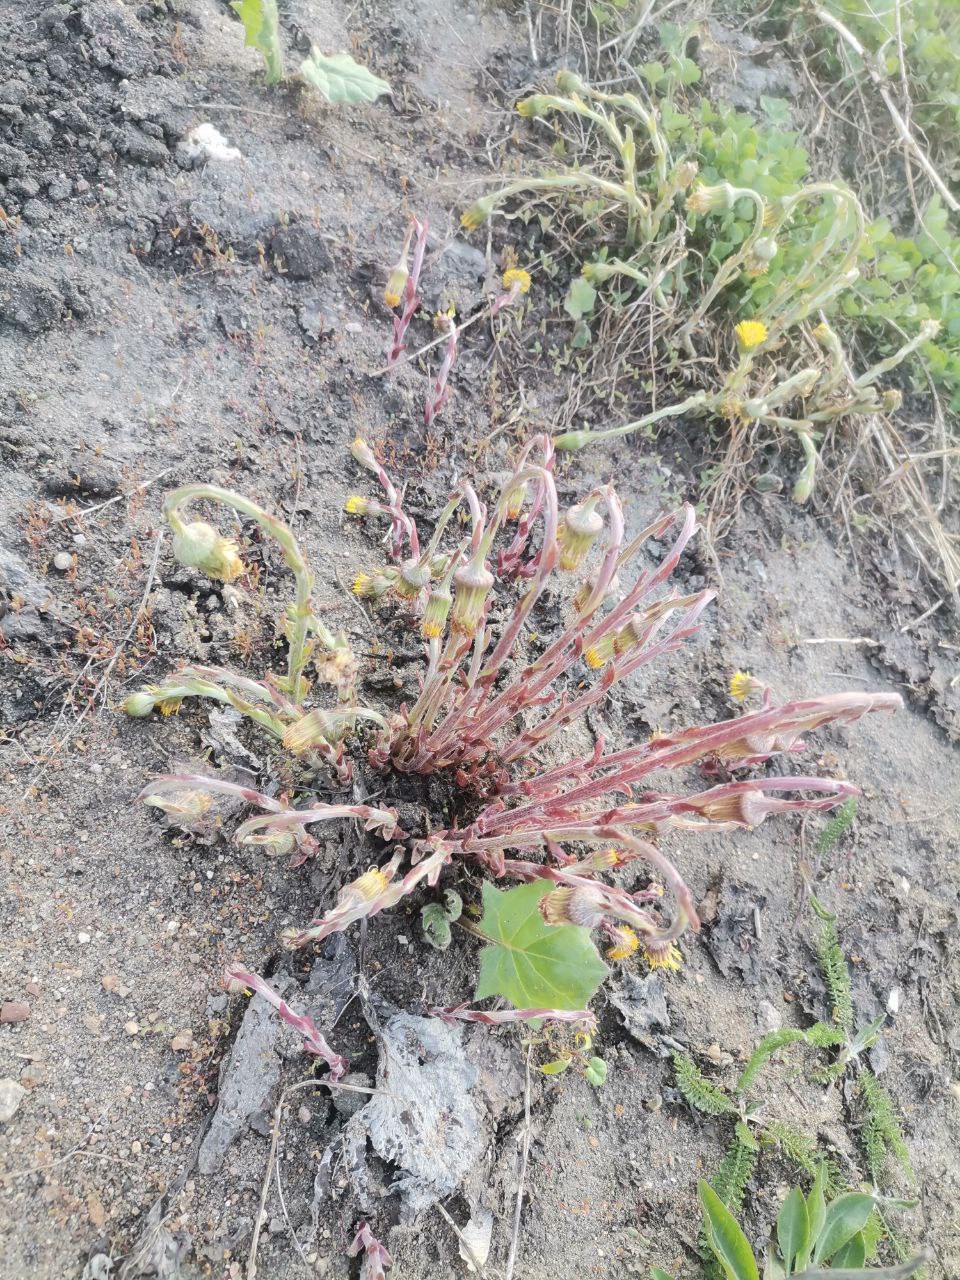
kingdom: Plantae
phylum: Tracheophyta
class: Magnoliopsida
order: Asterales
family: Asteraceae
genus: Tussilago
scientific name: Tussilago farfara
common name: Coltsfoot
